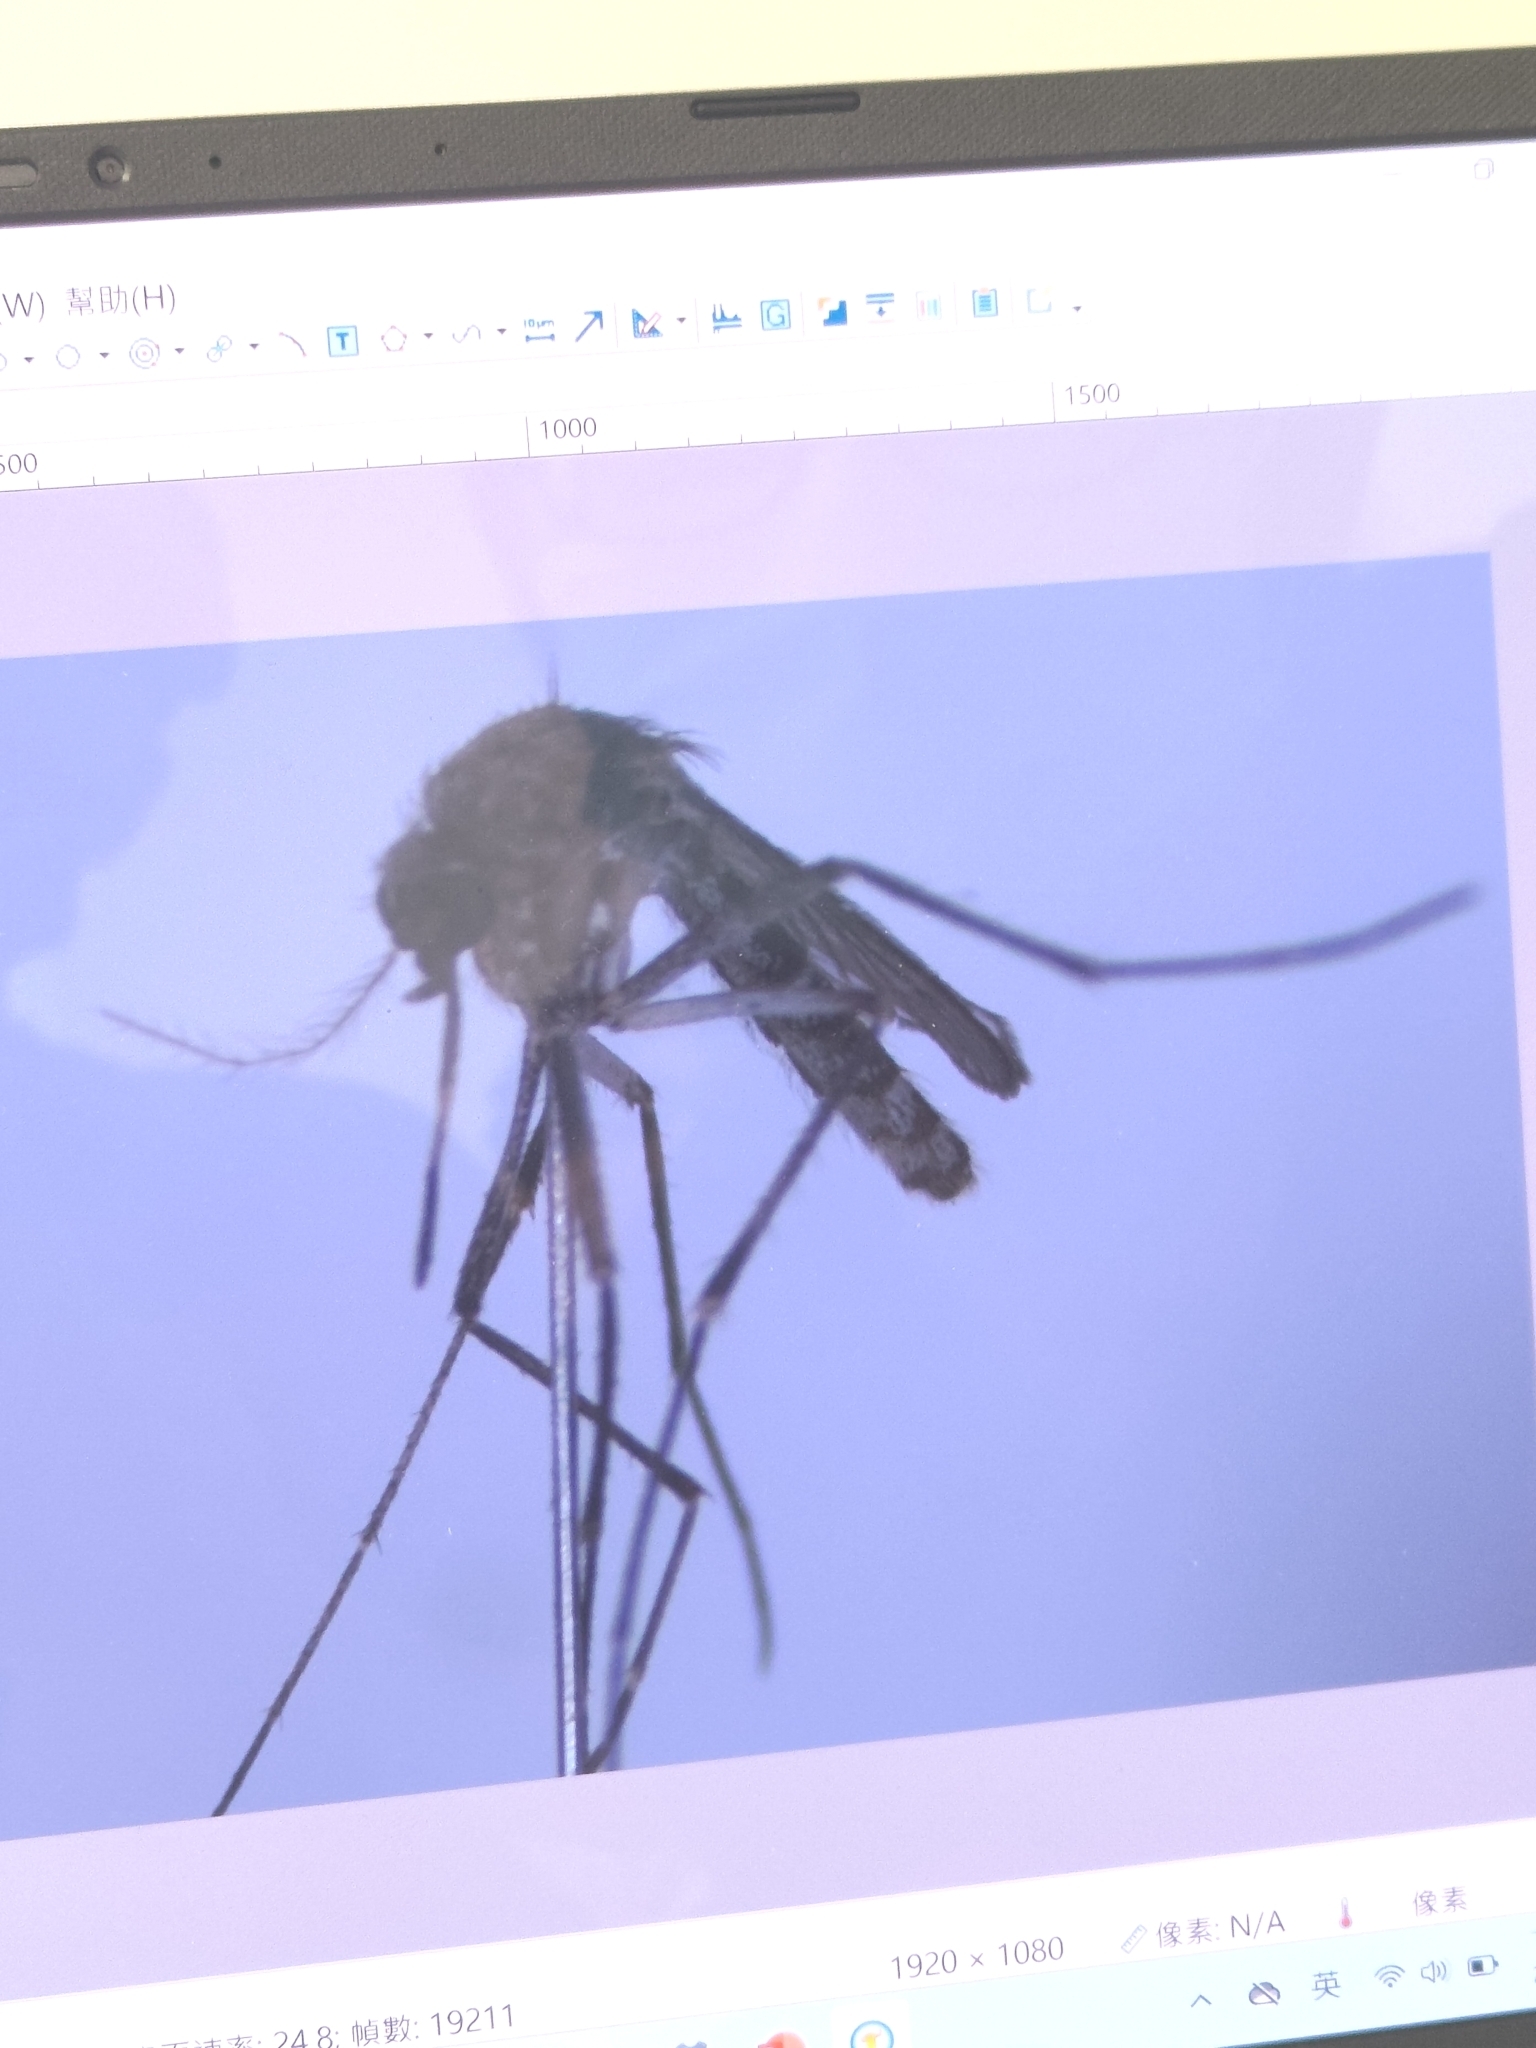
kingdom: Animalia
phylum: Arthropoda
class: Insecta
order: Diptera
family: Culicidae
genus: Culex
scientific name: Culex annulus
